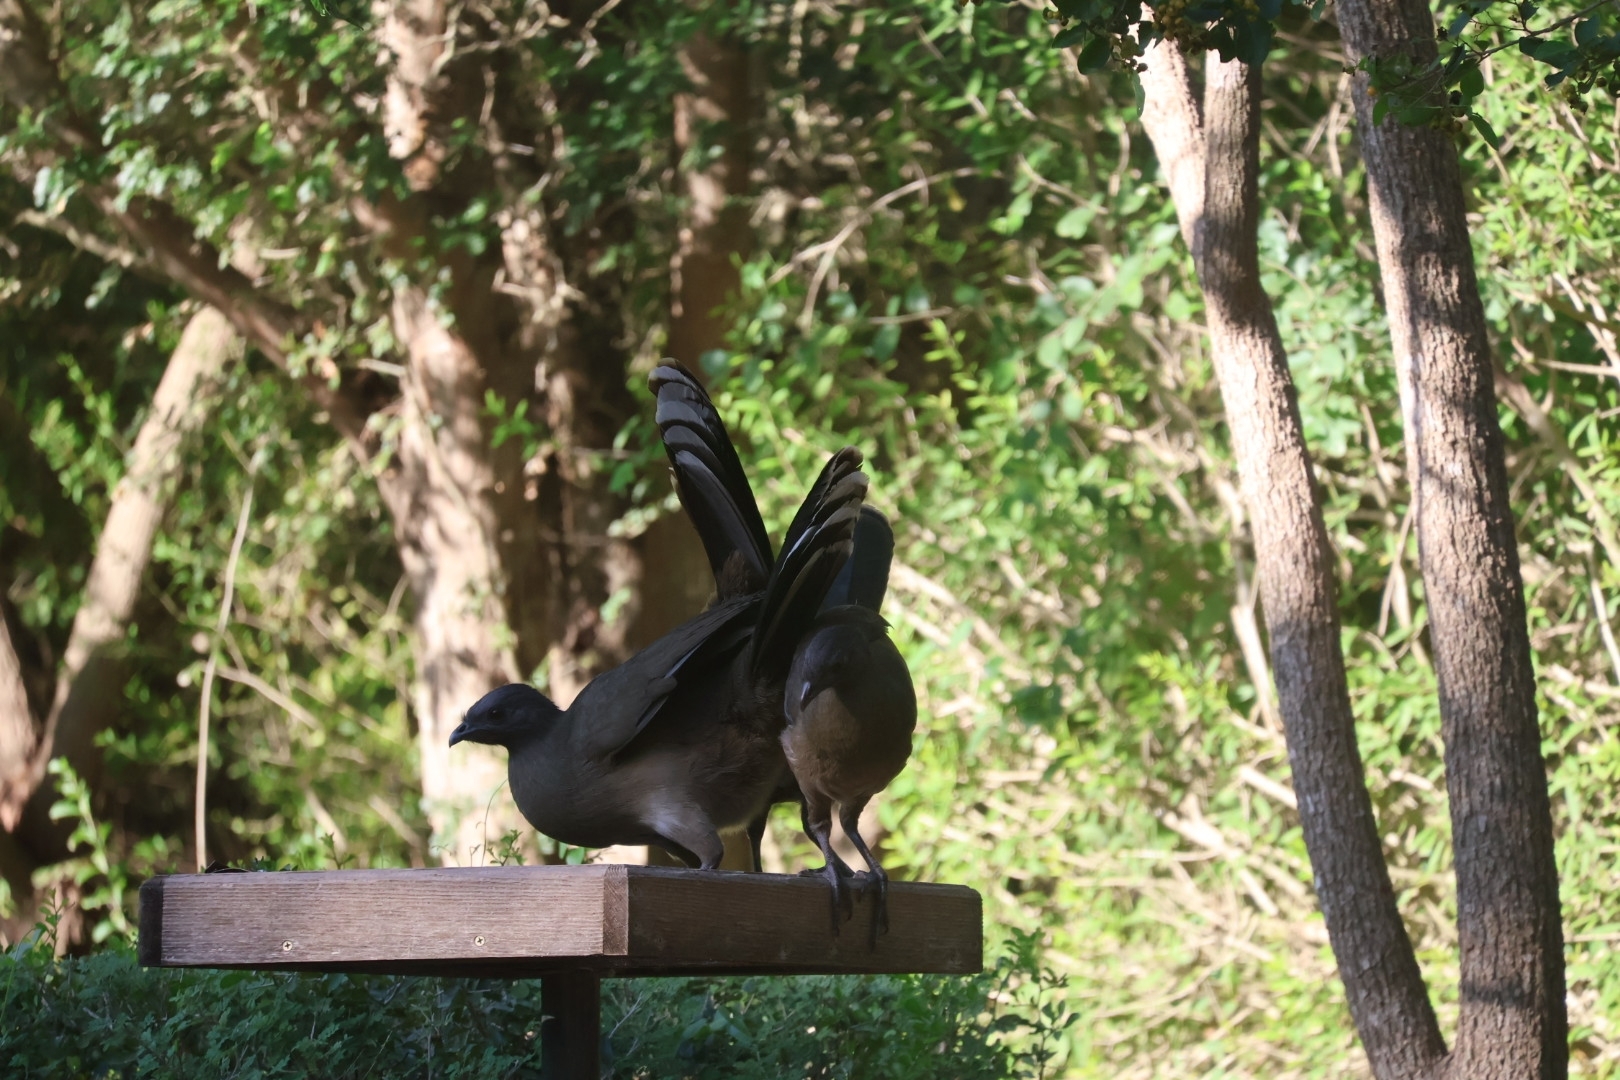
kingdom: Animalia
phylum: Chordata
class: Aves
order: Galliformes
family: Cracidae
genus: Ortalis
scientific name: Ortalis vetula
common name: Plain chachalaca
